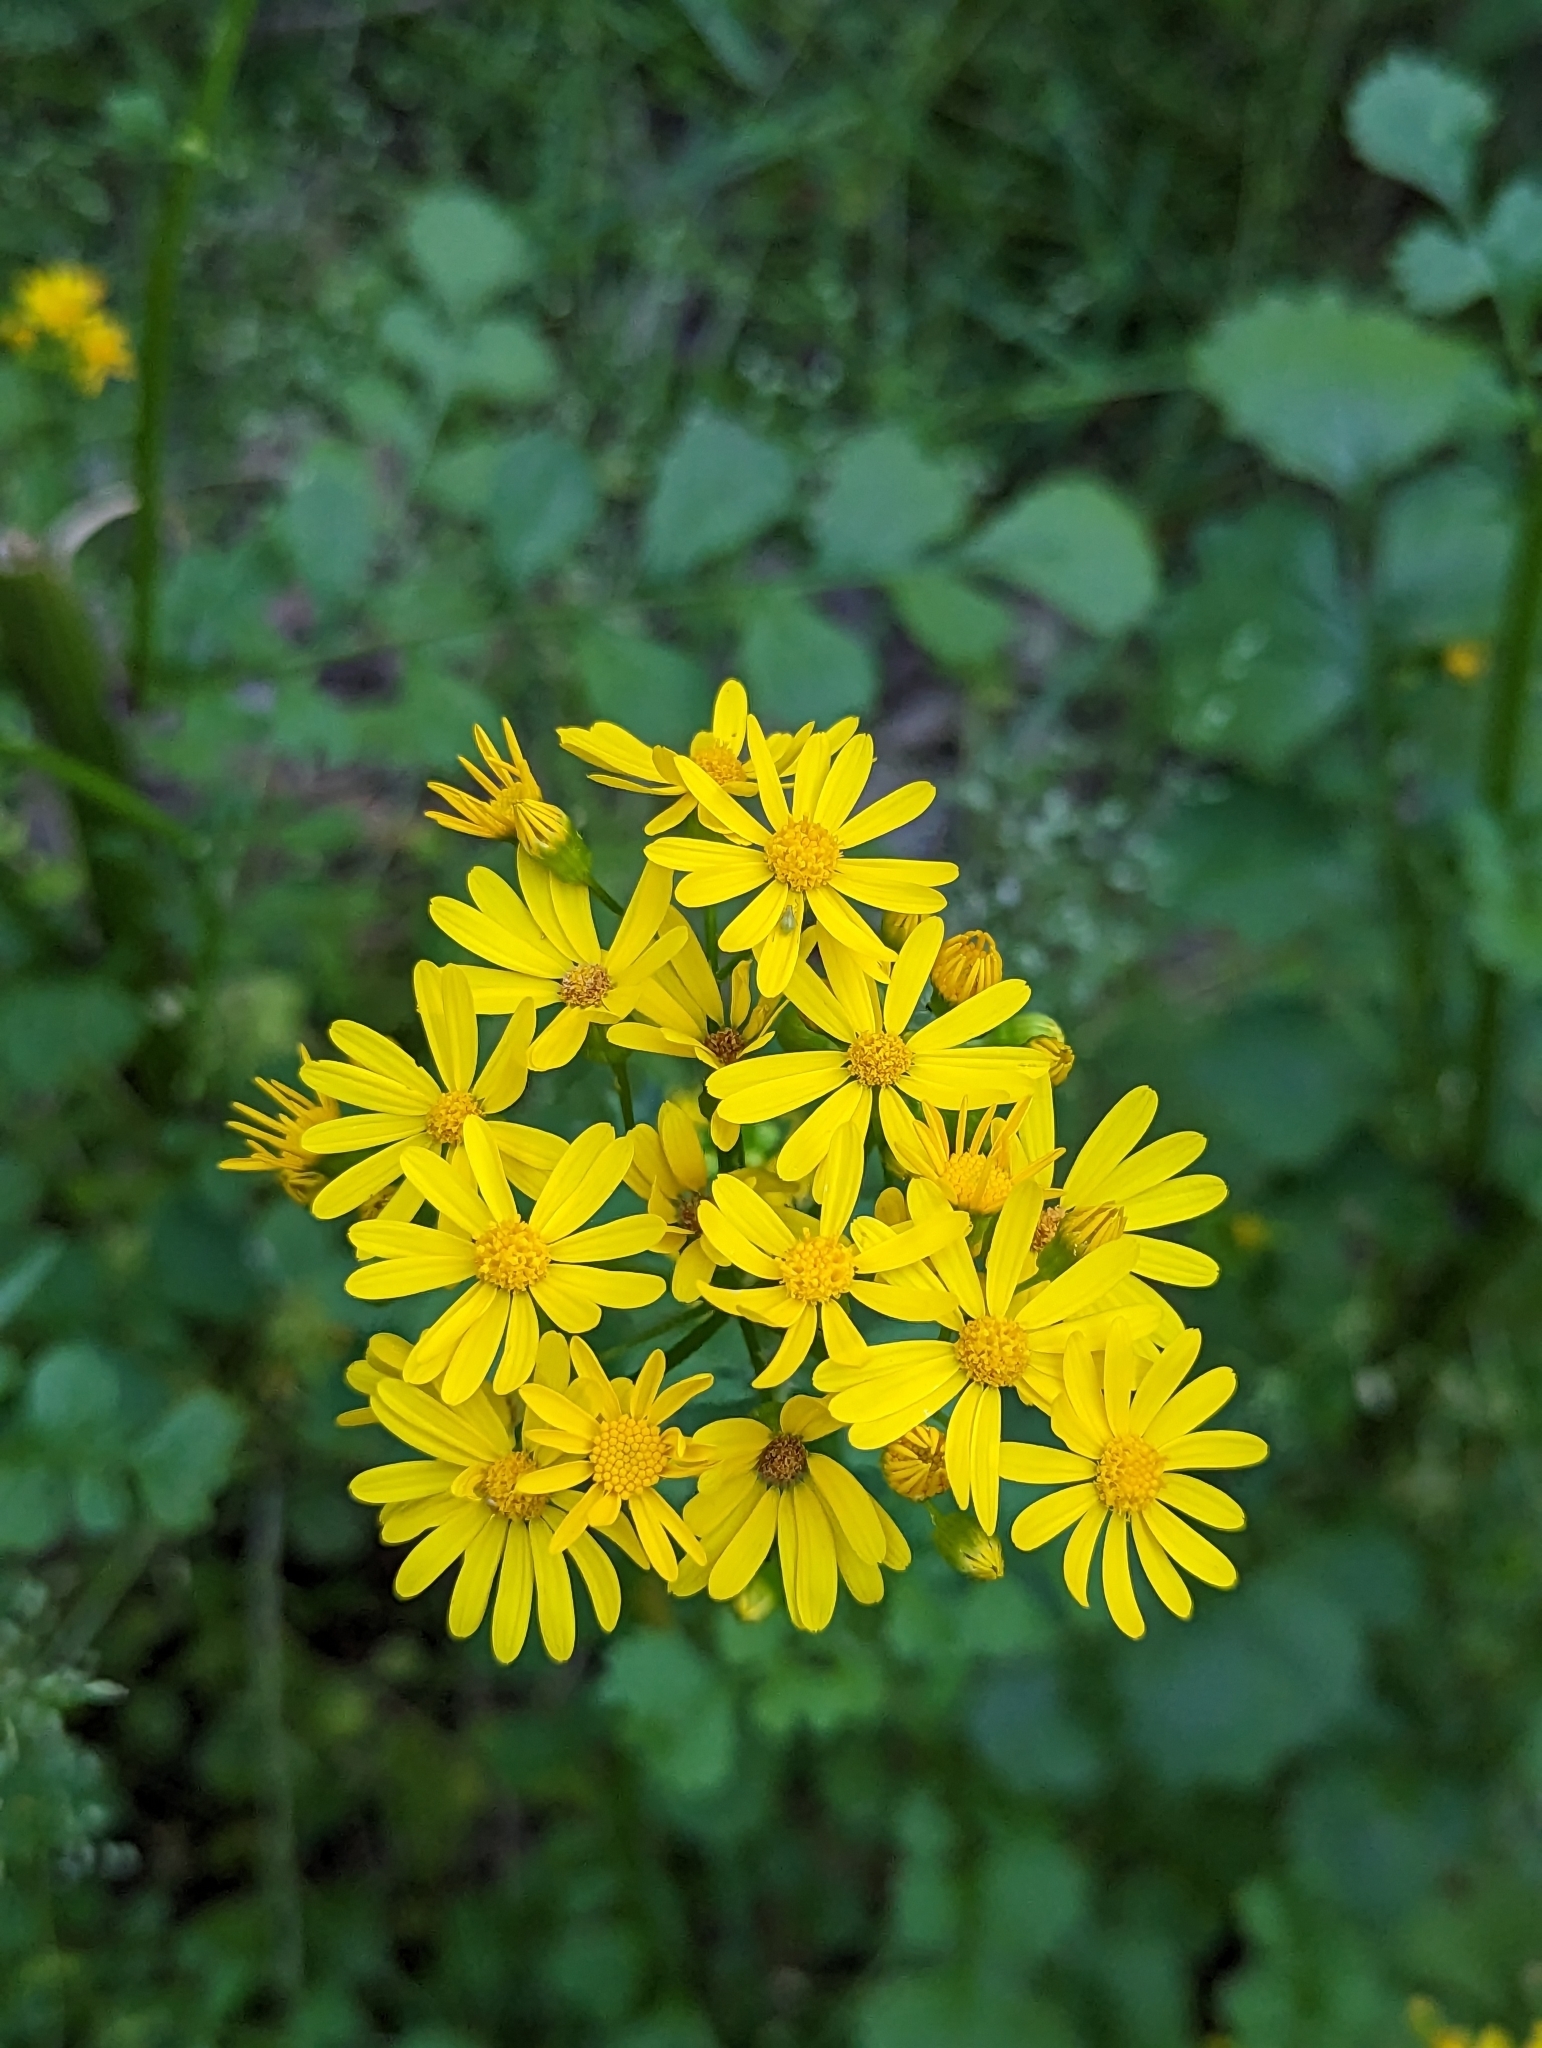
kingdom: Plantae
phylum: Tracheophyta
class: Magnoliopsida
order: Asterales
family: Asteraceae
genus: Packera
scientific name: Packera glabella
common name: Butterweed
